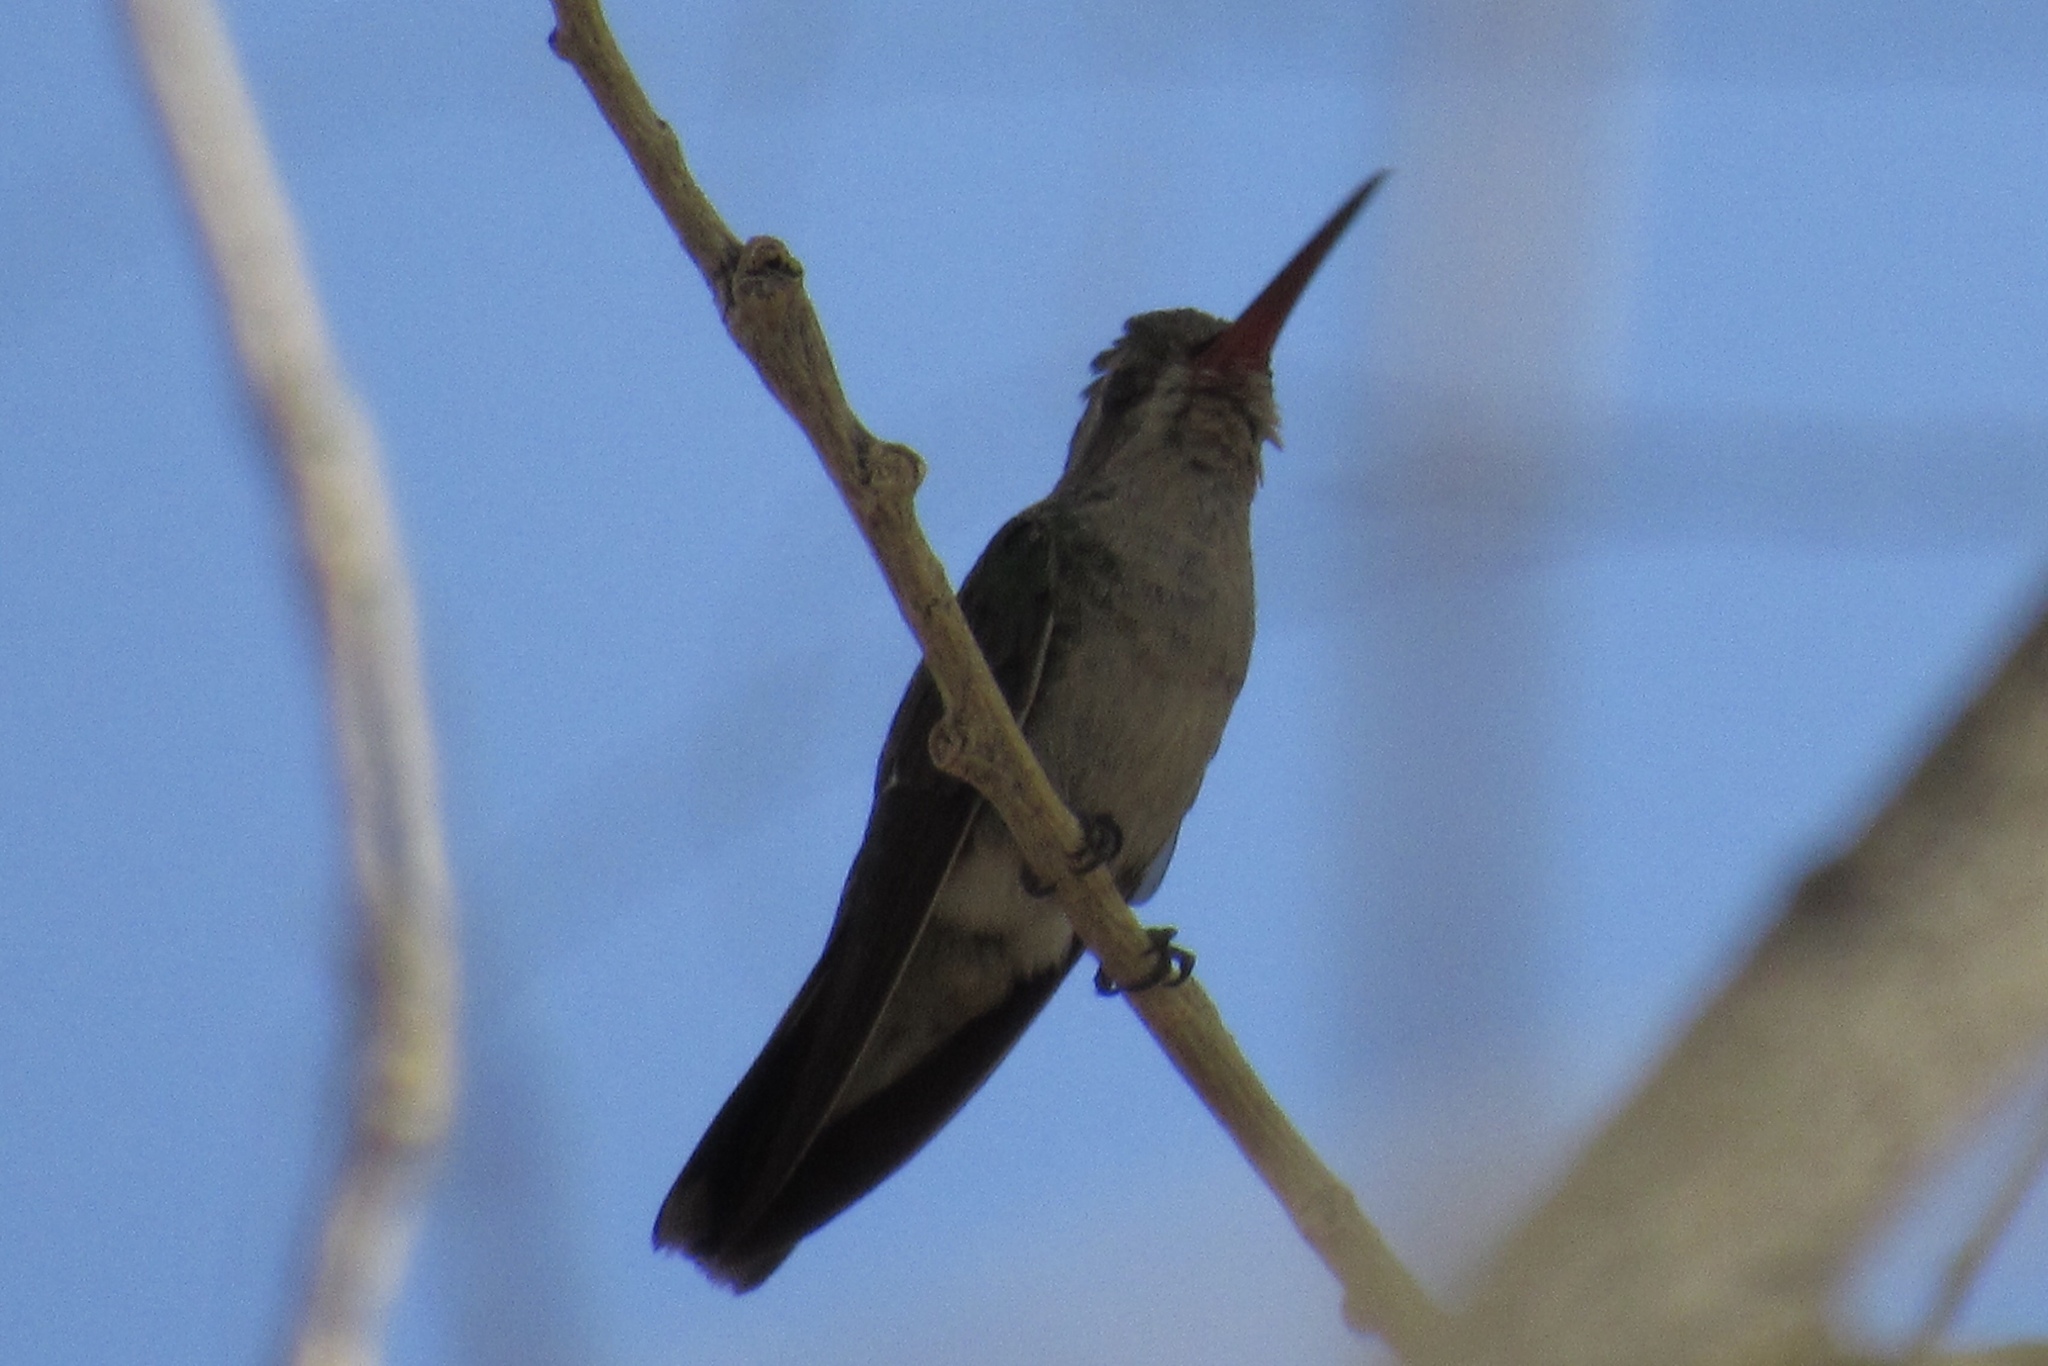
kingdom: Animalia
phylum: Chordata
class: Aves
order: Apodiformes
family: Trochilidae
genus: Cynanthus
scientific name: Cynanthus latirostris
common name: Broad-billed hummingbird
